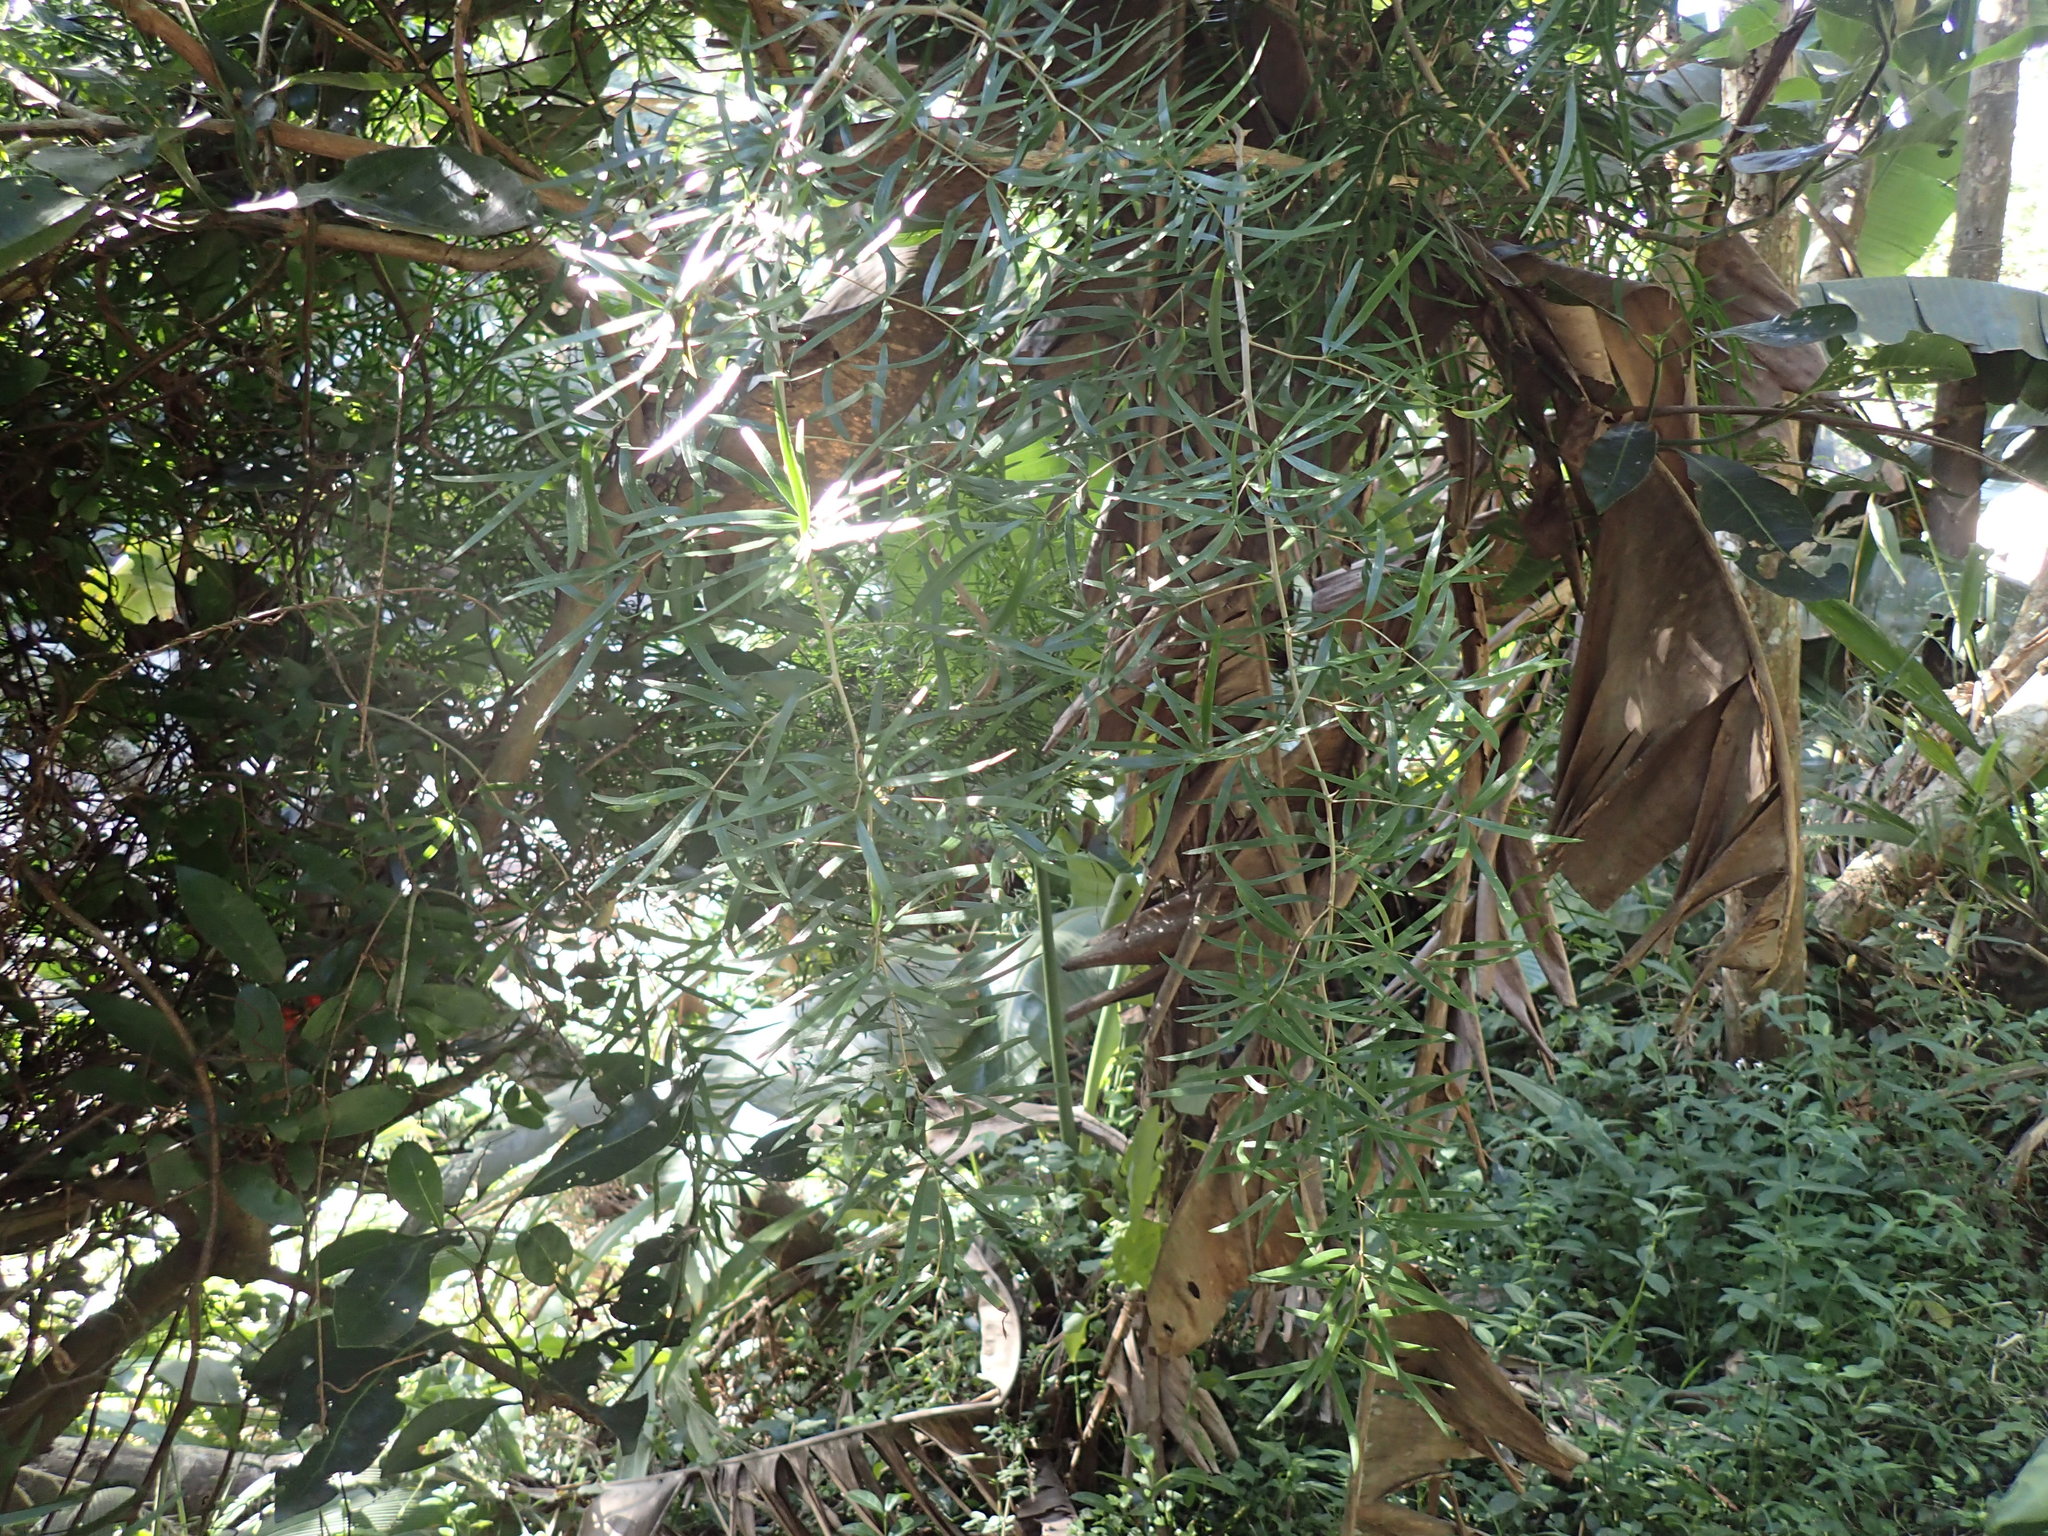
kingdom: Plantae
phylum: Tracheophyta
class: Liliopsida
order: Asparagales
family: Asparagaceae
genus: Asparagus
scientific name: Asparagus falcatus
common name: Asparagus
